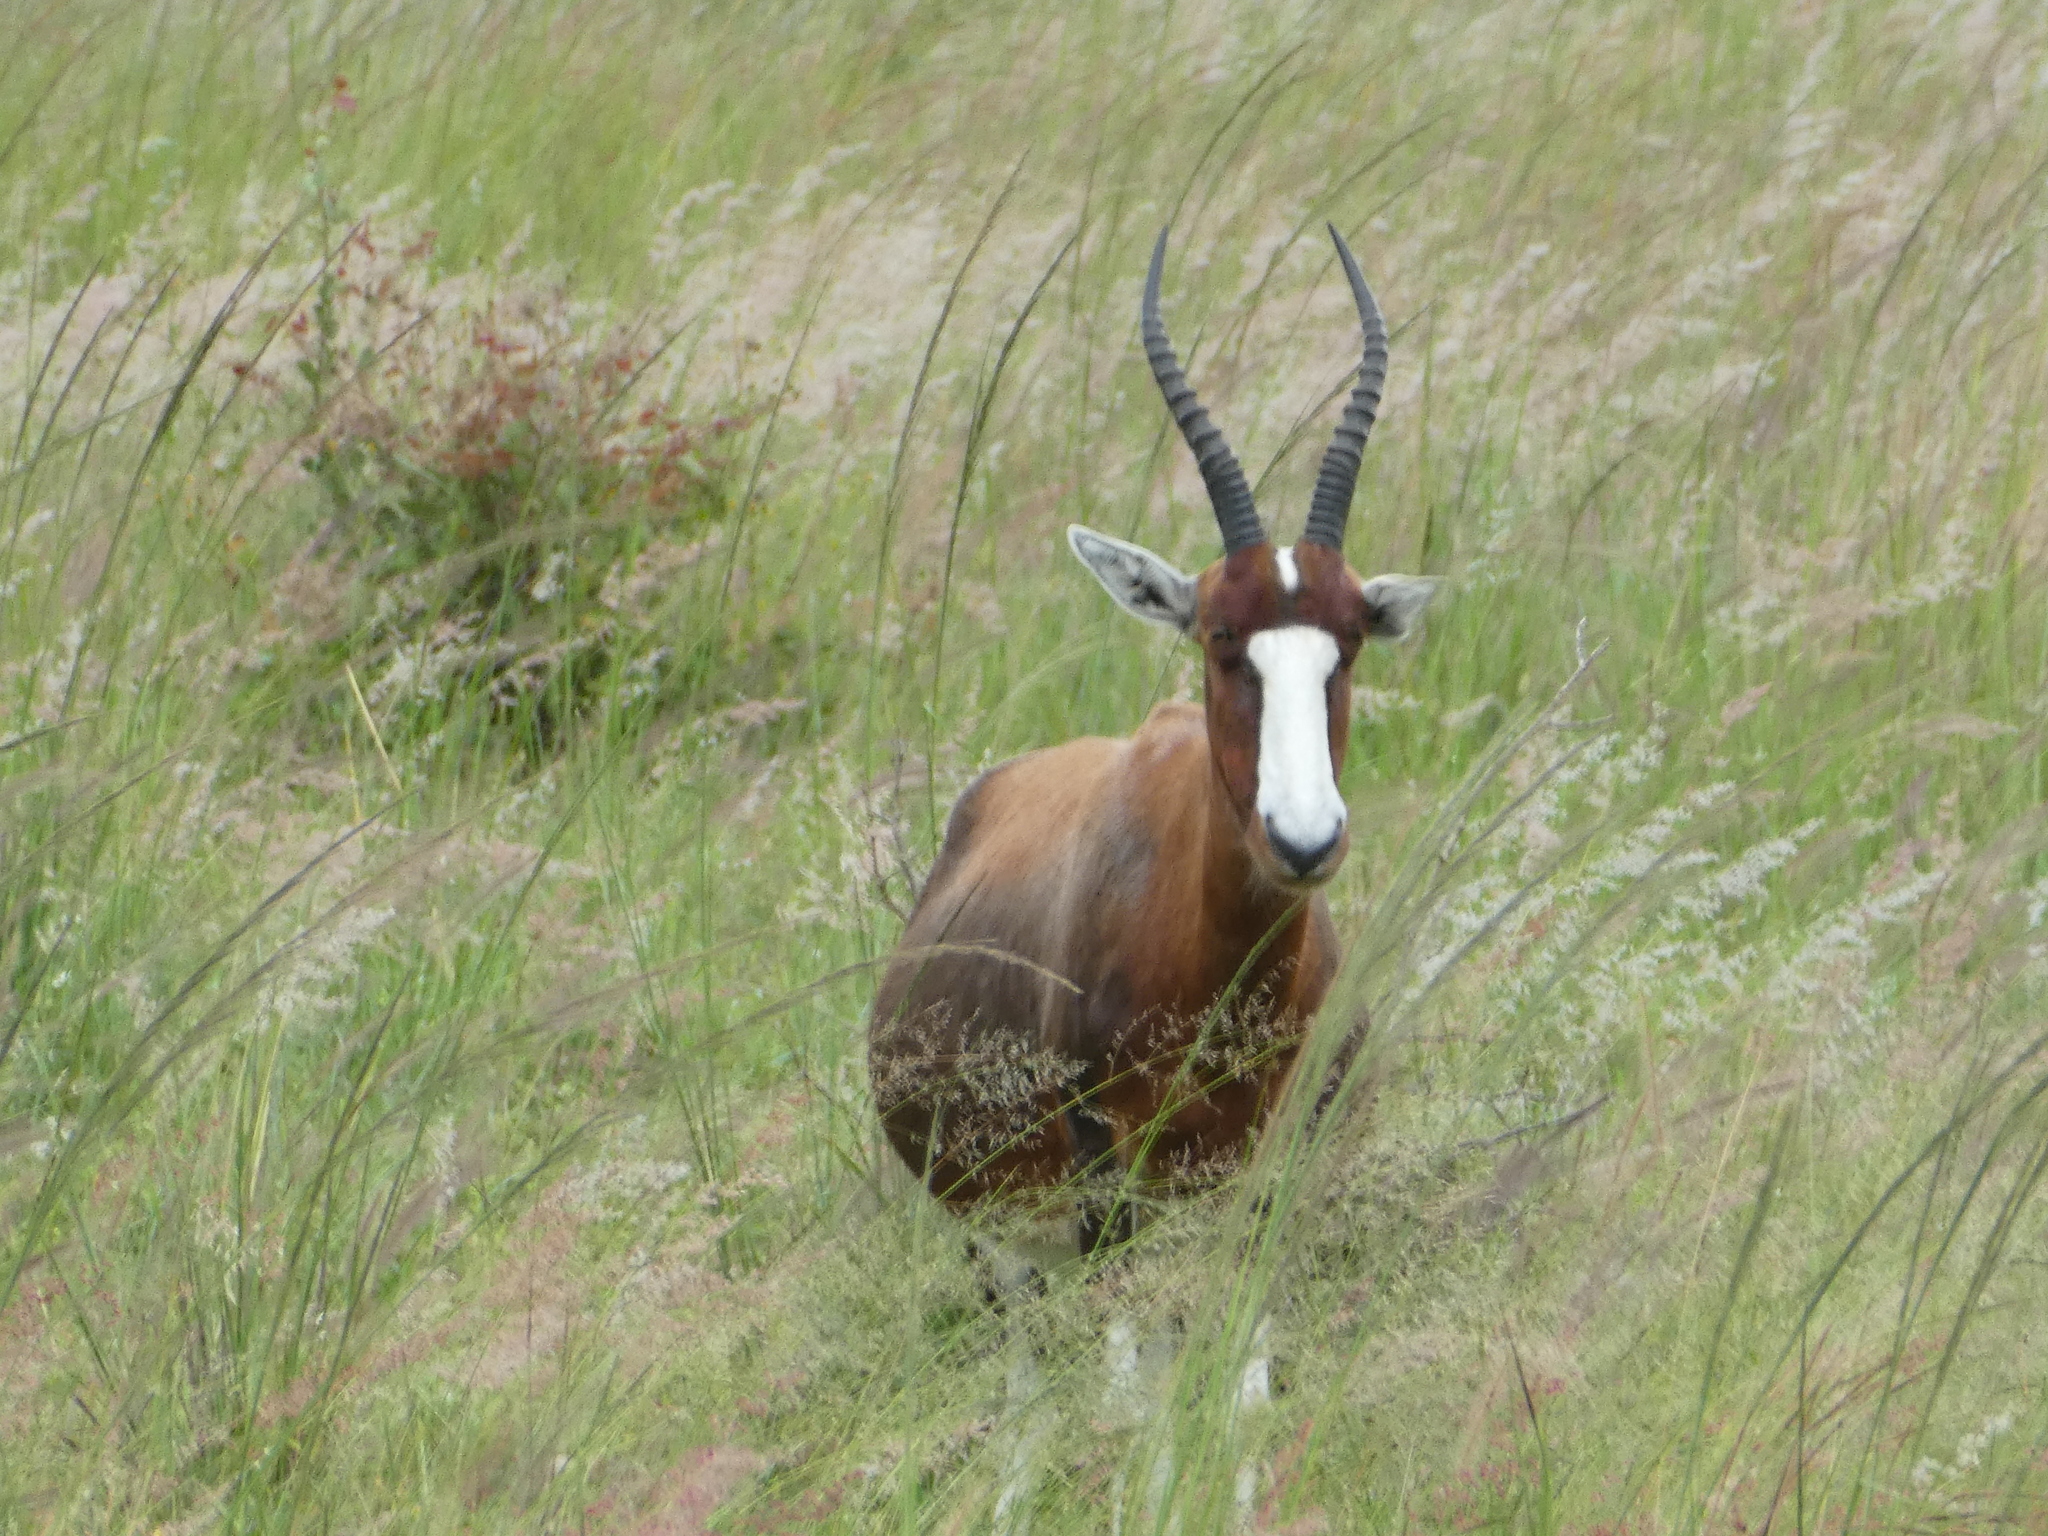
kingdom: Animalia
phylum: Chordata
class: Mammalia
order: Artiodactyla
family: Bovidae
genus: Damaliscus
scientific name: Damaliscus pygargus
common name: Bontebok
